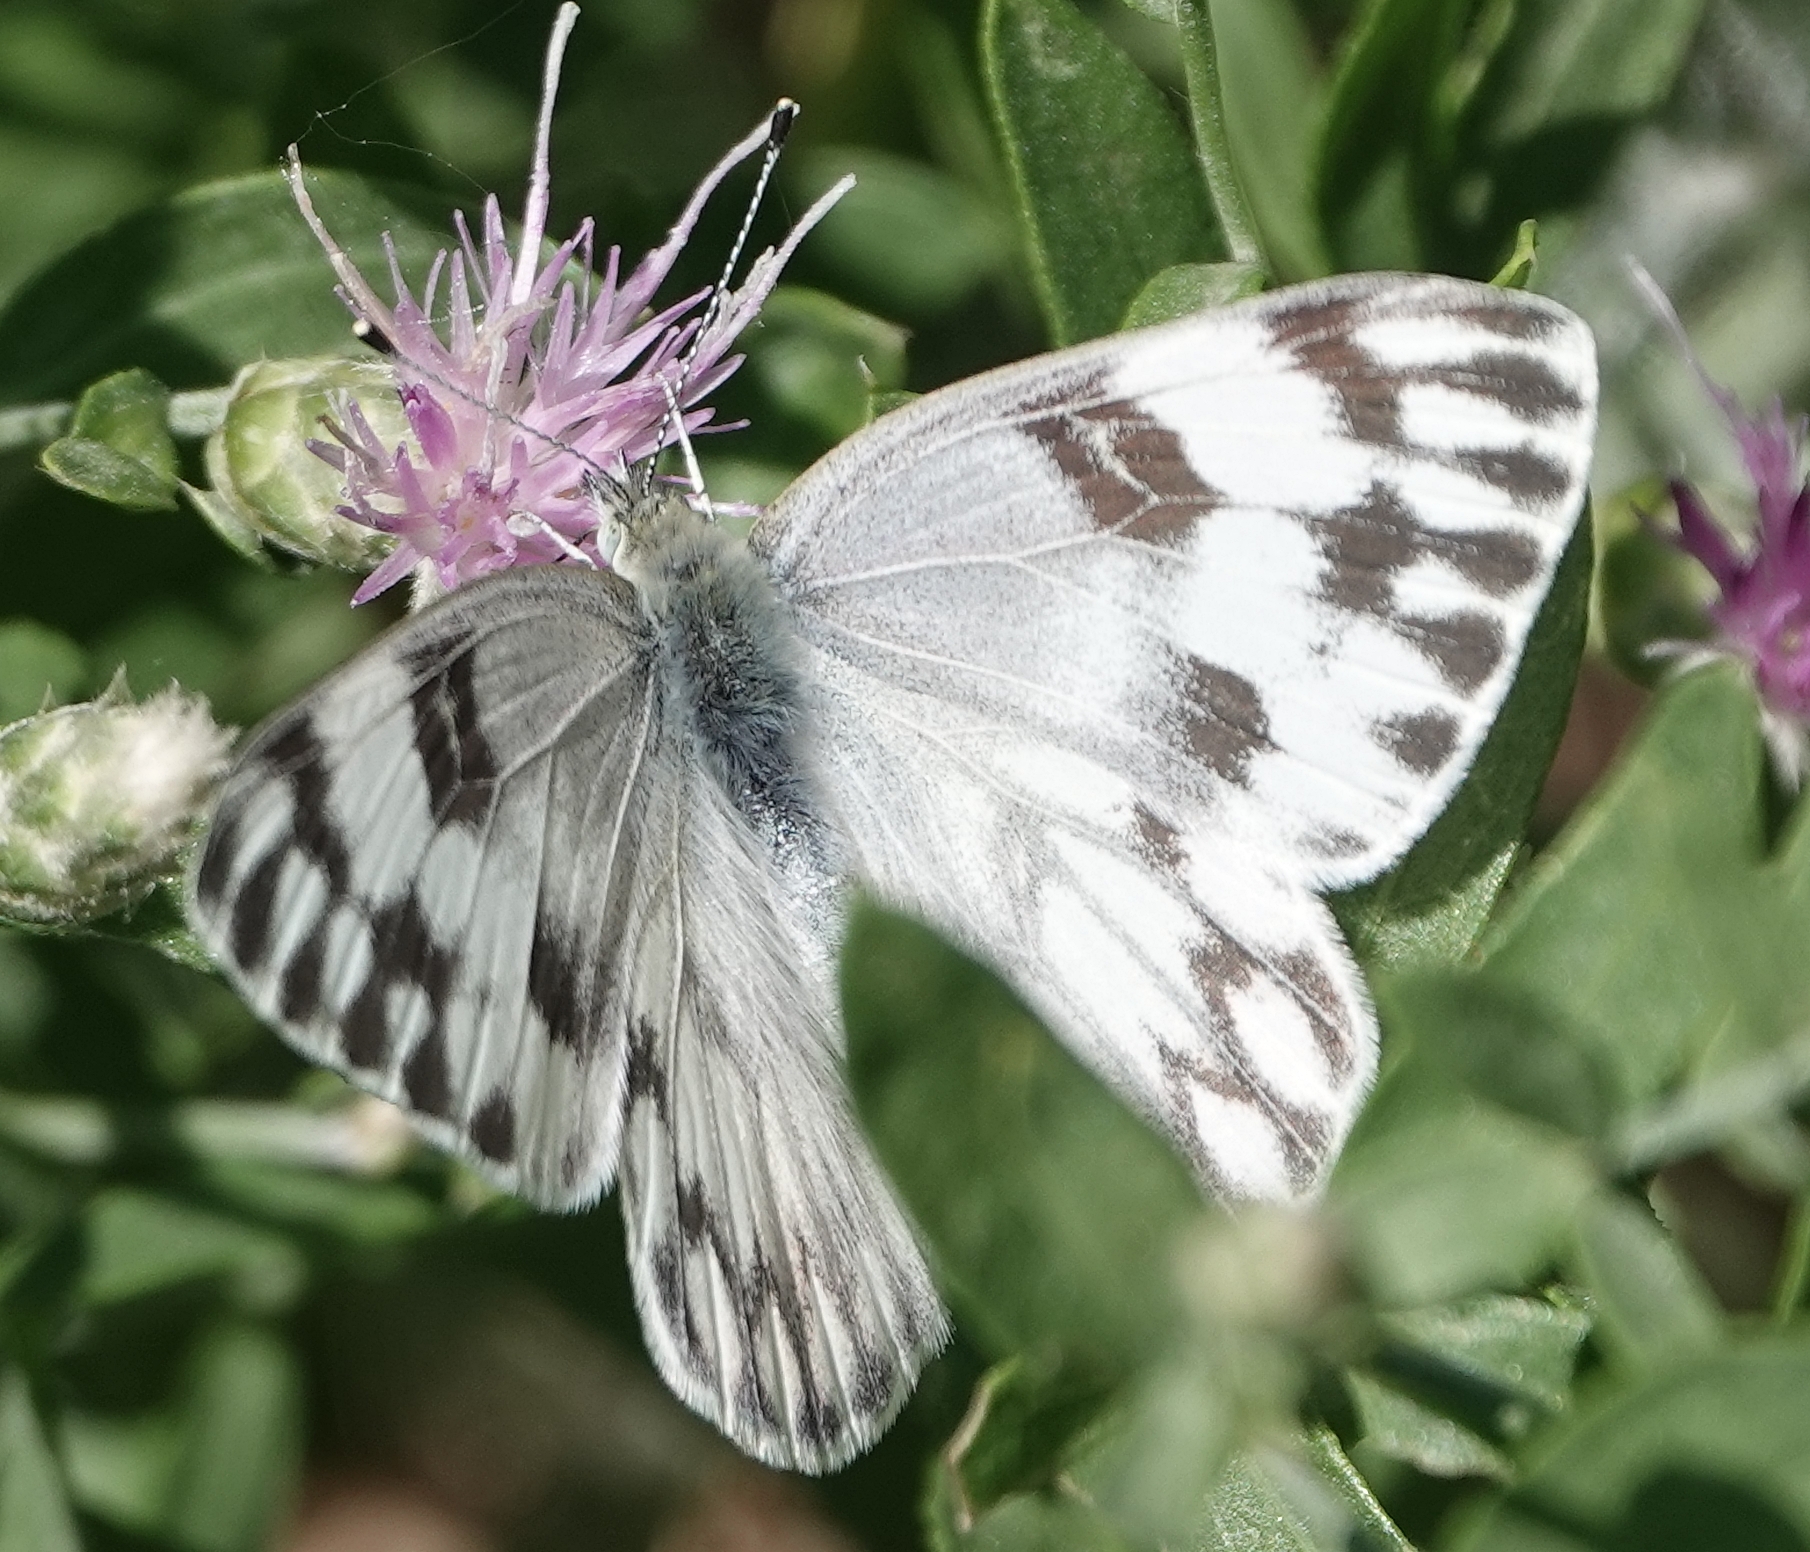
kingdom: Animalia
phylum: Arthropoda
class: Insecta
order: Lepidoptera
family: Pieridae
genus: Pontia
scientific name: Pontia protodice
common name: Checkered white
